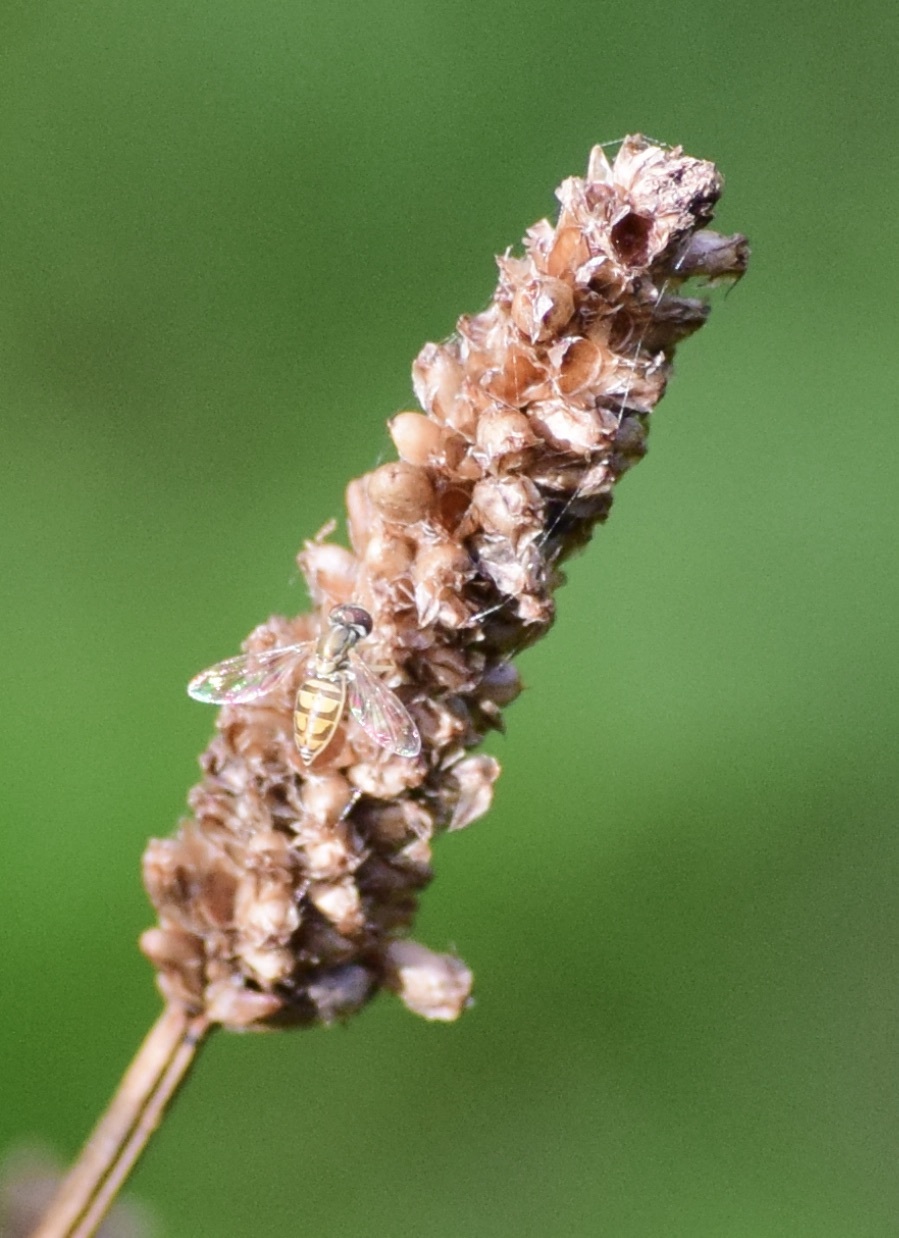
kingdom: Animalia
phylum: Arthropoda
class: Insecta
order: Diptera
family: Syrphidae
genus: Toxomerus
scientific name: Toxomerus marginatus
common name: Syrphid fly
